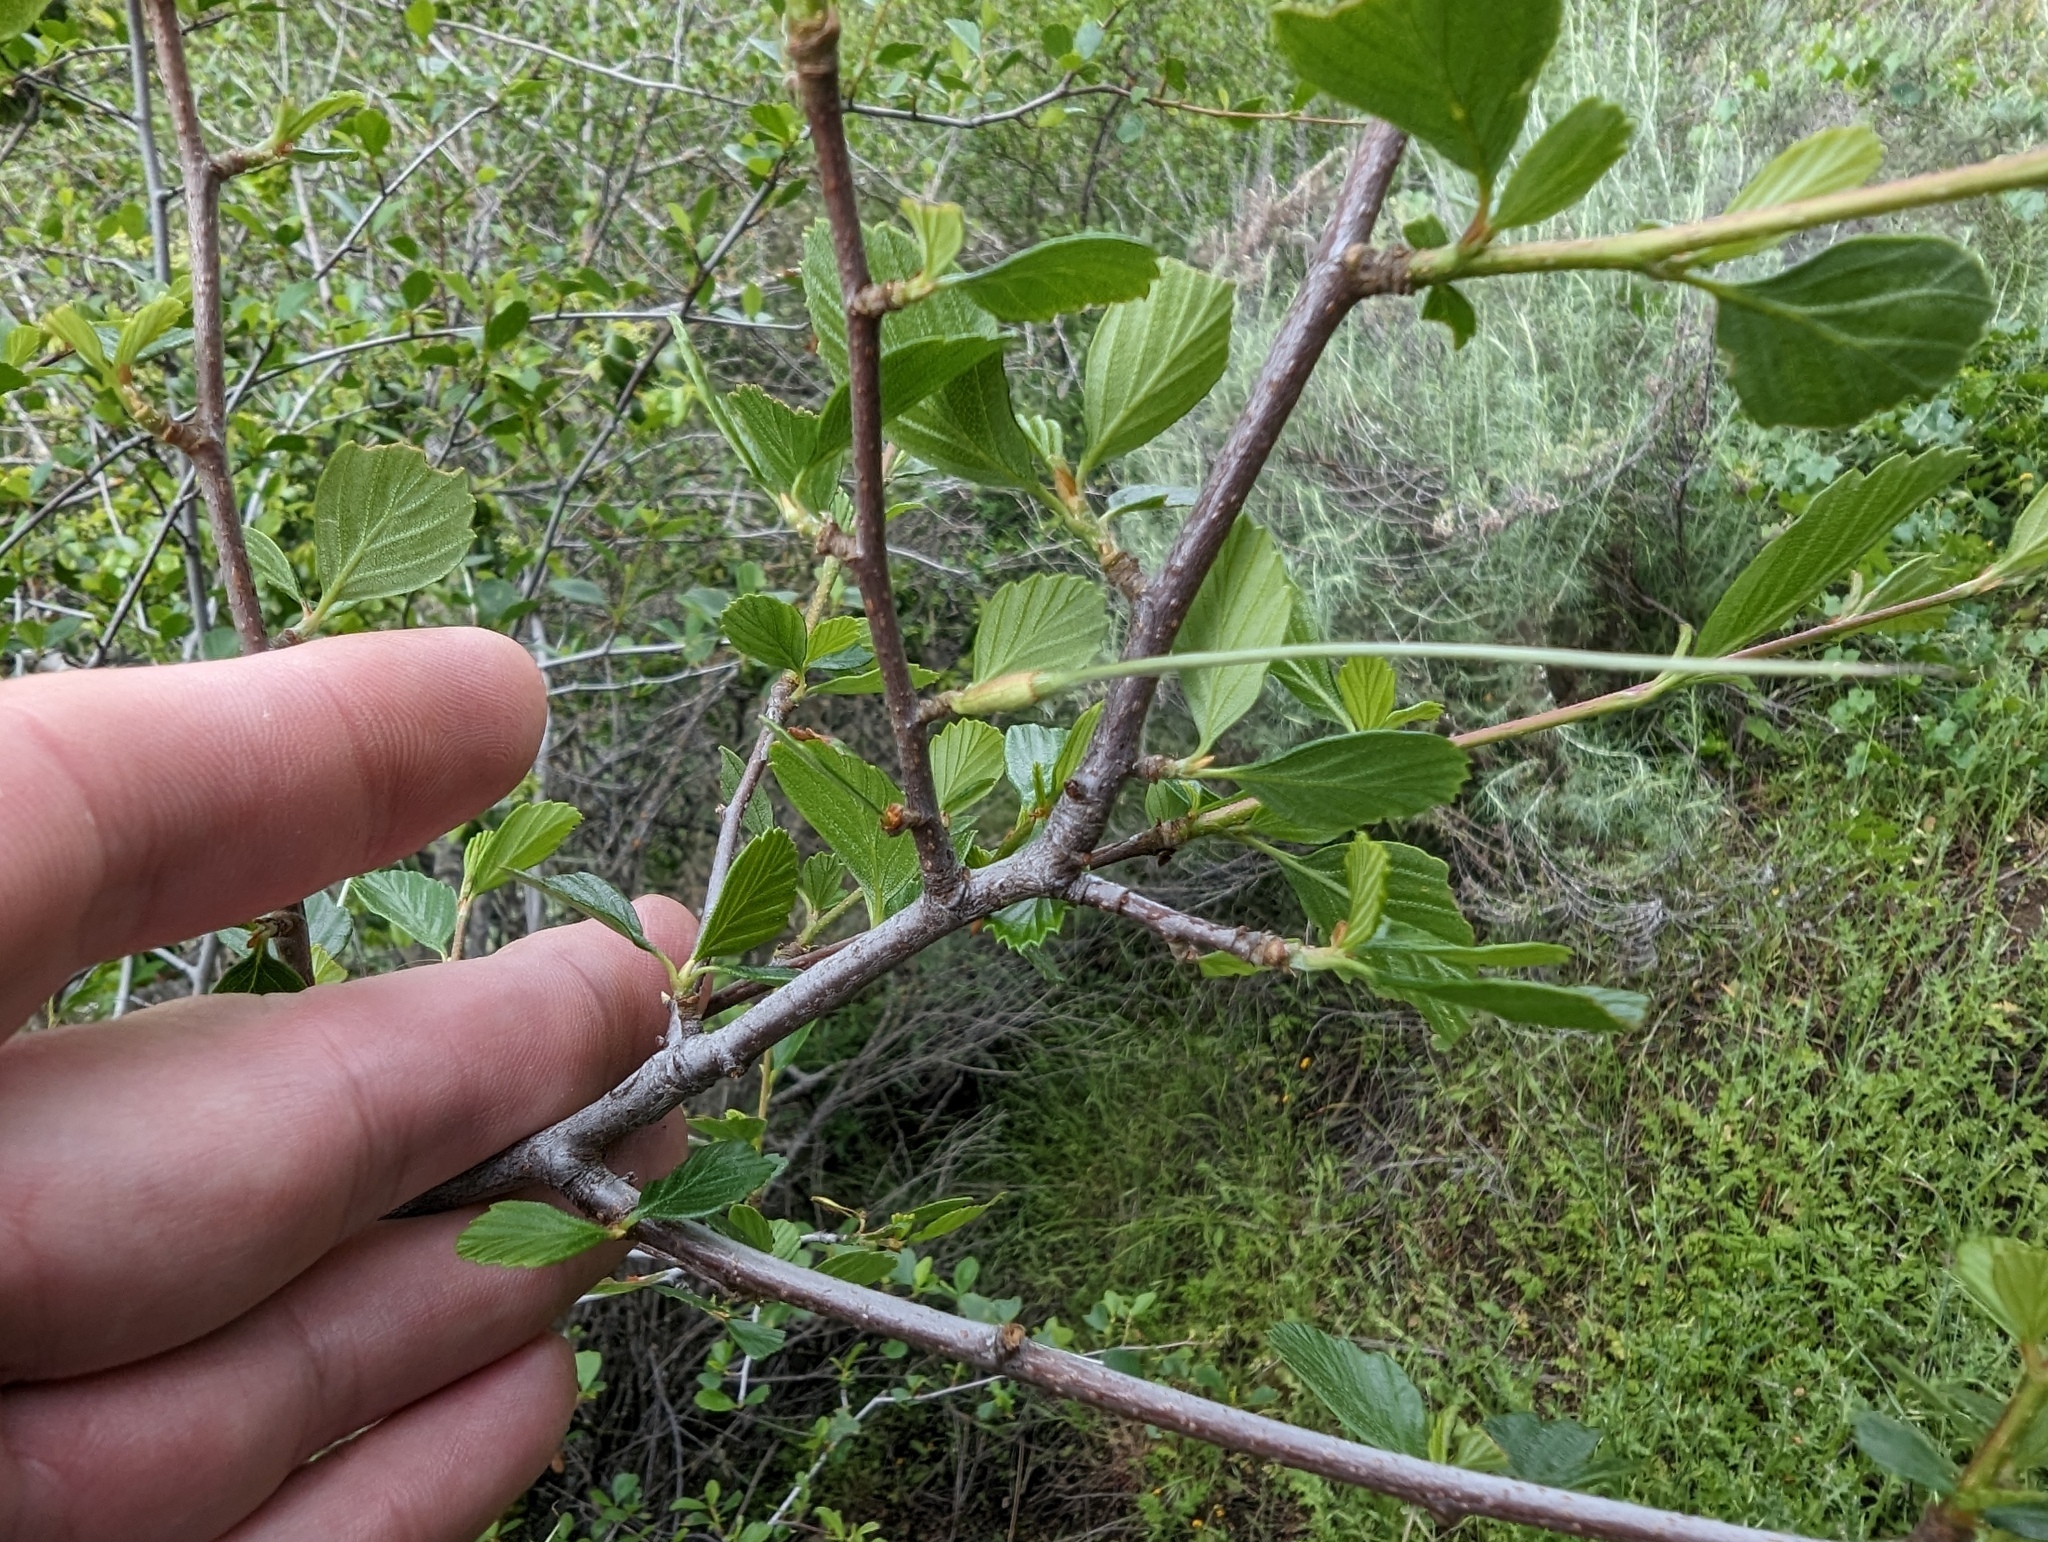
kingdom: Plantae
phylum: Tracheophyta
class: Magnoliopsida
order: Rosales
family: Rosaceae
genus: Cercocarpus
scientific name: Cercocarpus betuloides
